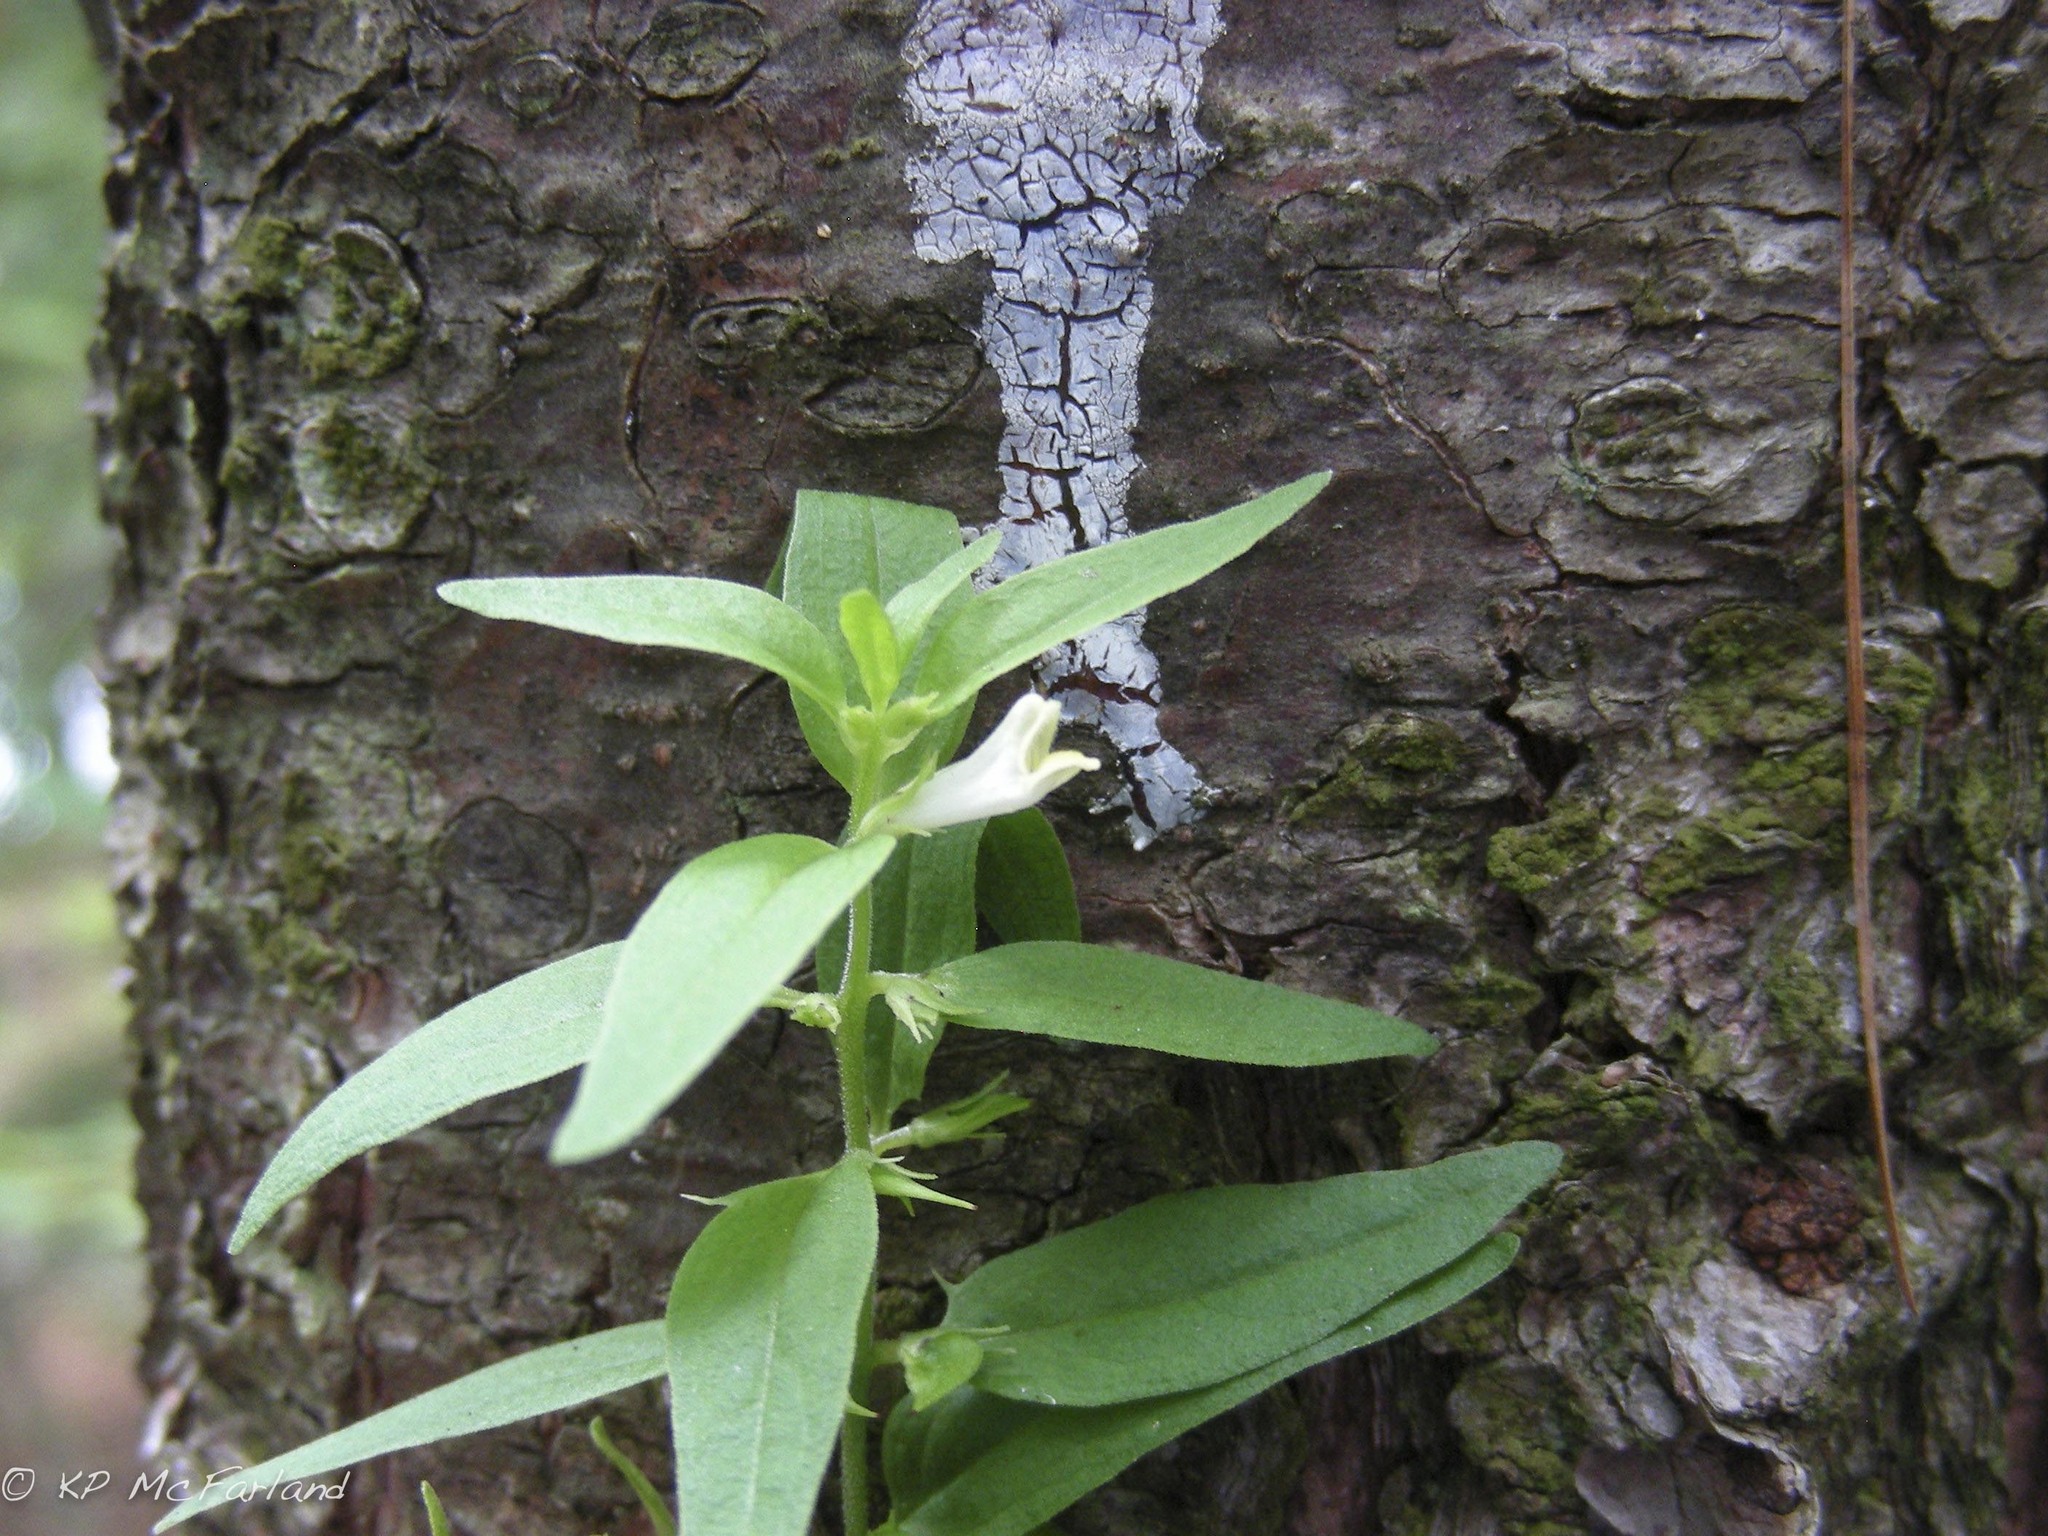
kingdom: Plantae
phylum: Tracheophyta
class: Magnoliopsida
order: Lamiales
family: Orobanchaceae
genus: Melampyrum
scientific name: Melampyrum lineare
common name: American cow-wheat
